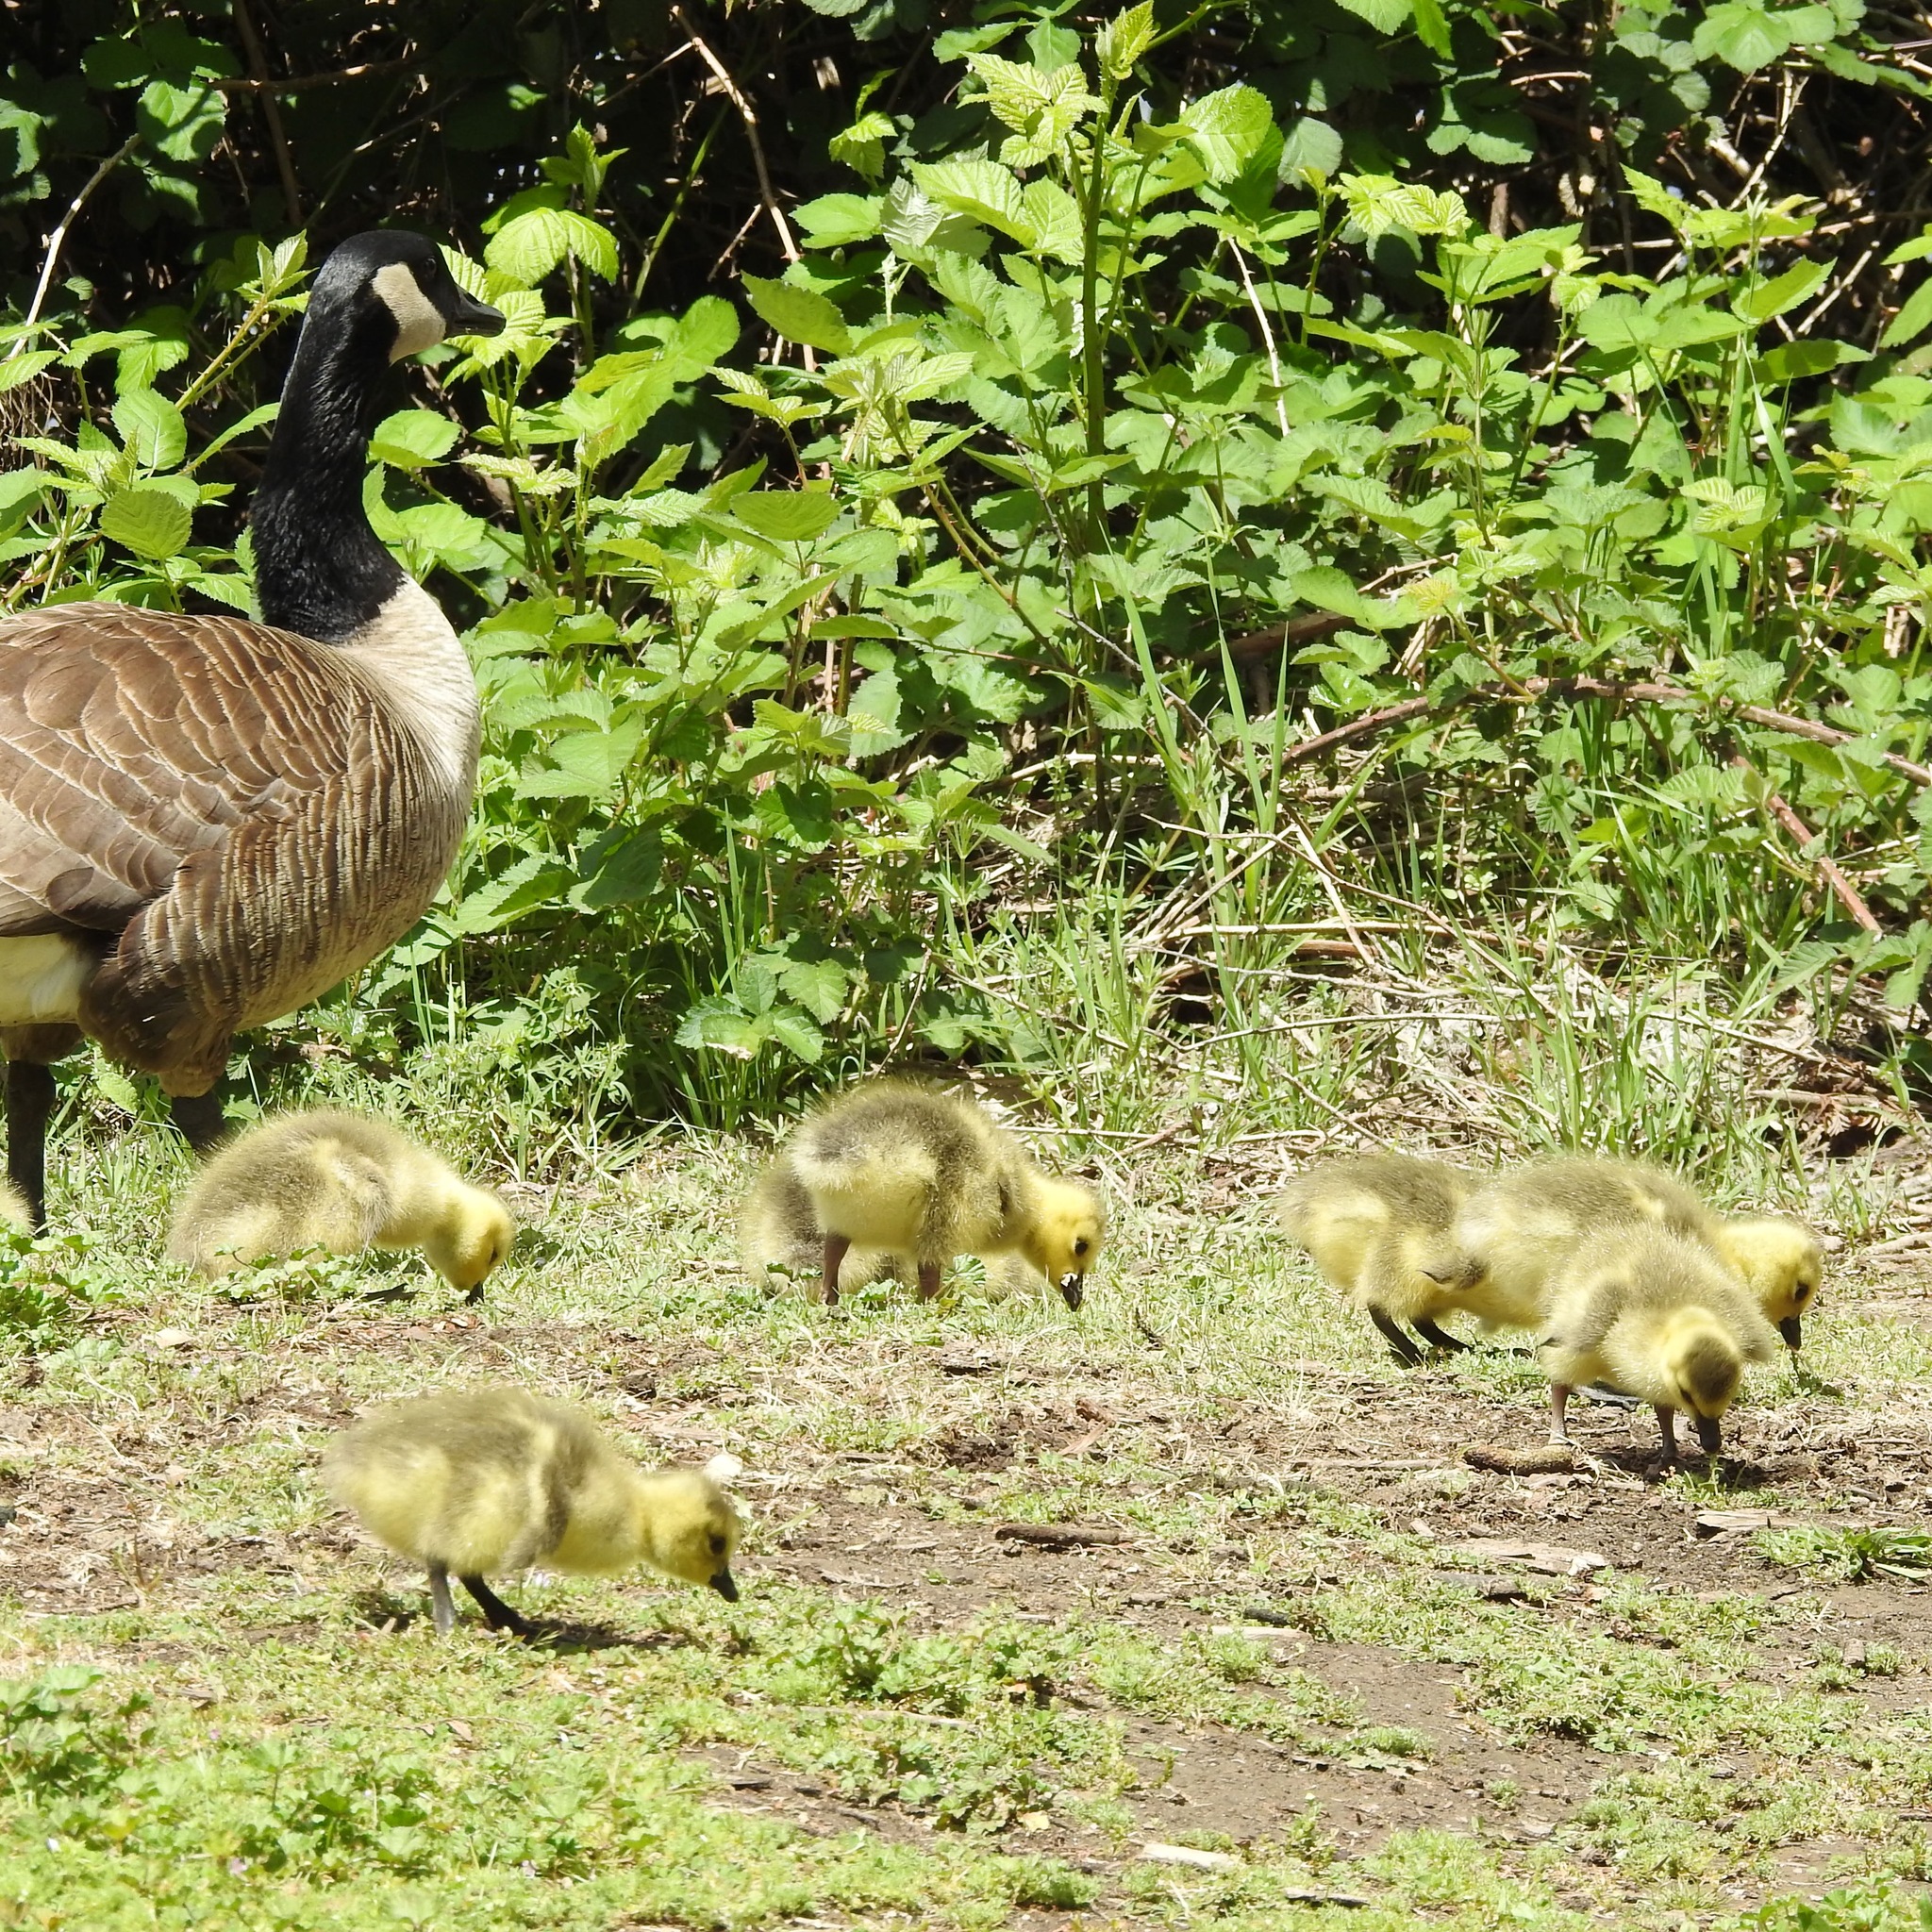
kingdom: Animalia
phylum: Chordata
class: Aves
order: Anseriformes
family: Anatidae
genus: Branta
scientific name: Branta canadensis
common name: Canada goose
